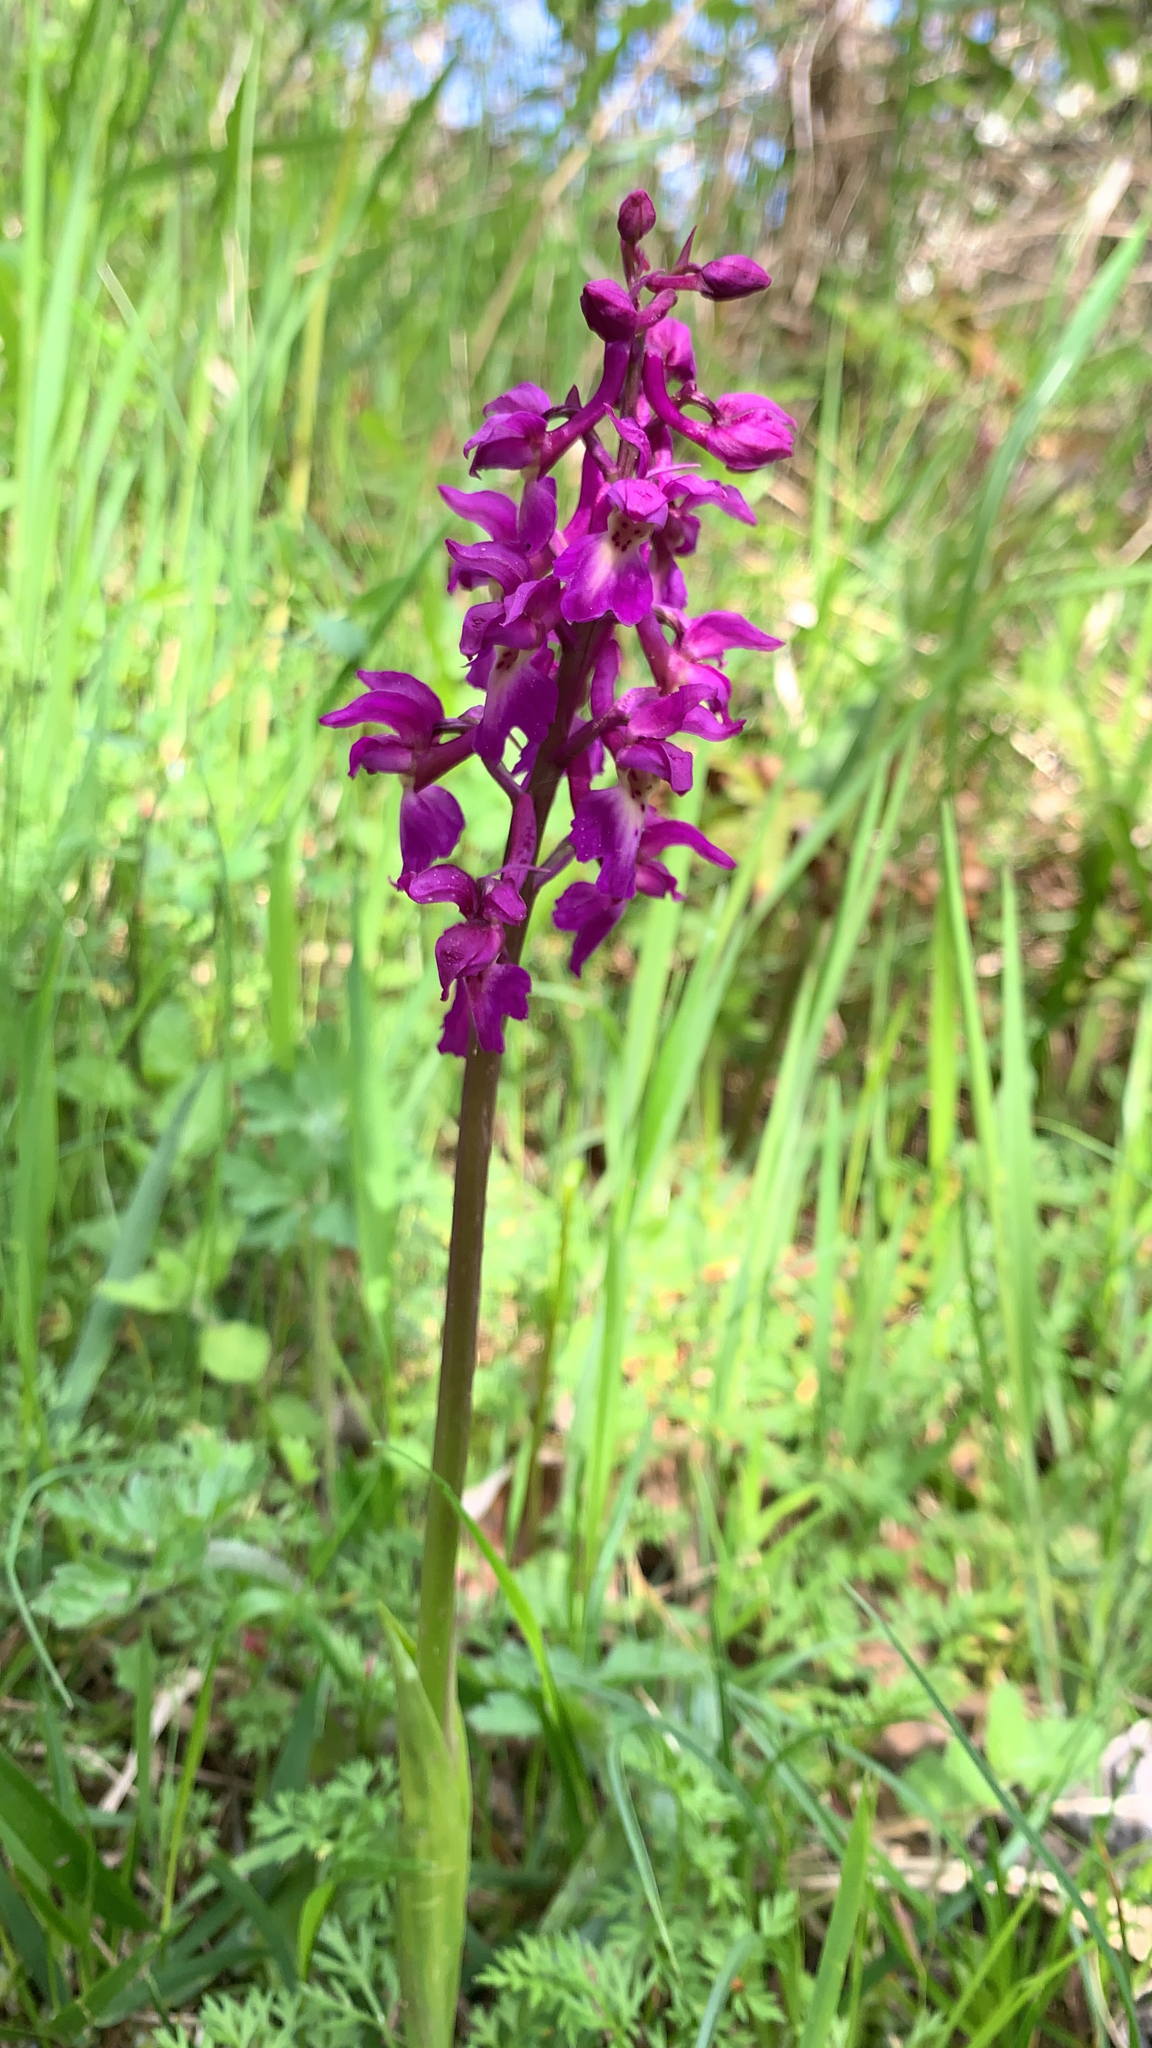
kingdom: Plantae
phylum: Tracheophyta
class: Liliopsida
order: Asparagales
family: Orchidaceae
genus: Orchis
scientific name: Orchis mascula
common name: Early-purple orchid
